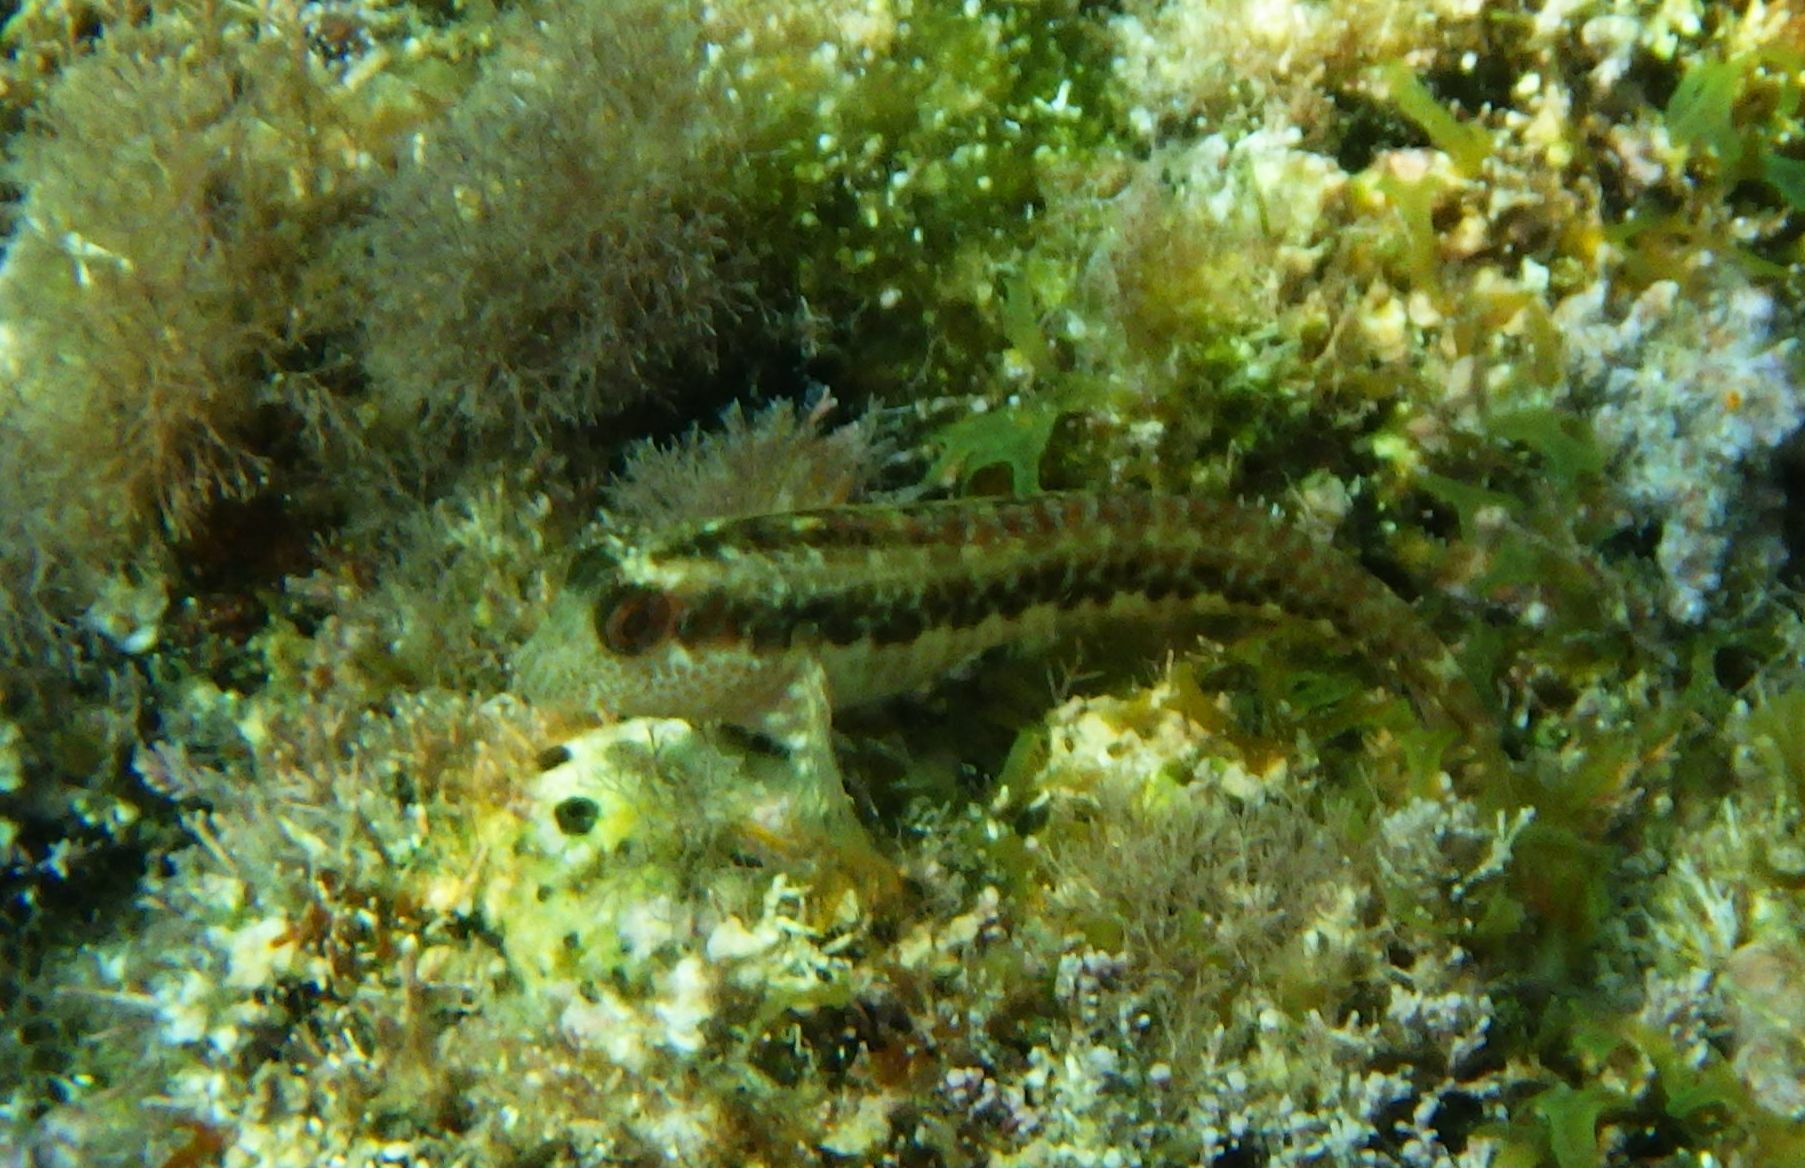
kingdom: Animalia
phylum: Chordata
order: Perciformes
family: Blenniidae
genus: Parablennius
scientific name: Parablennius pilicornis
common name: Ringneck blenny
